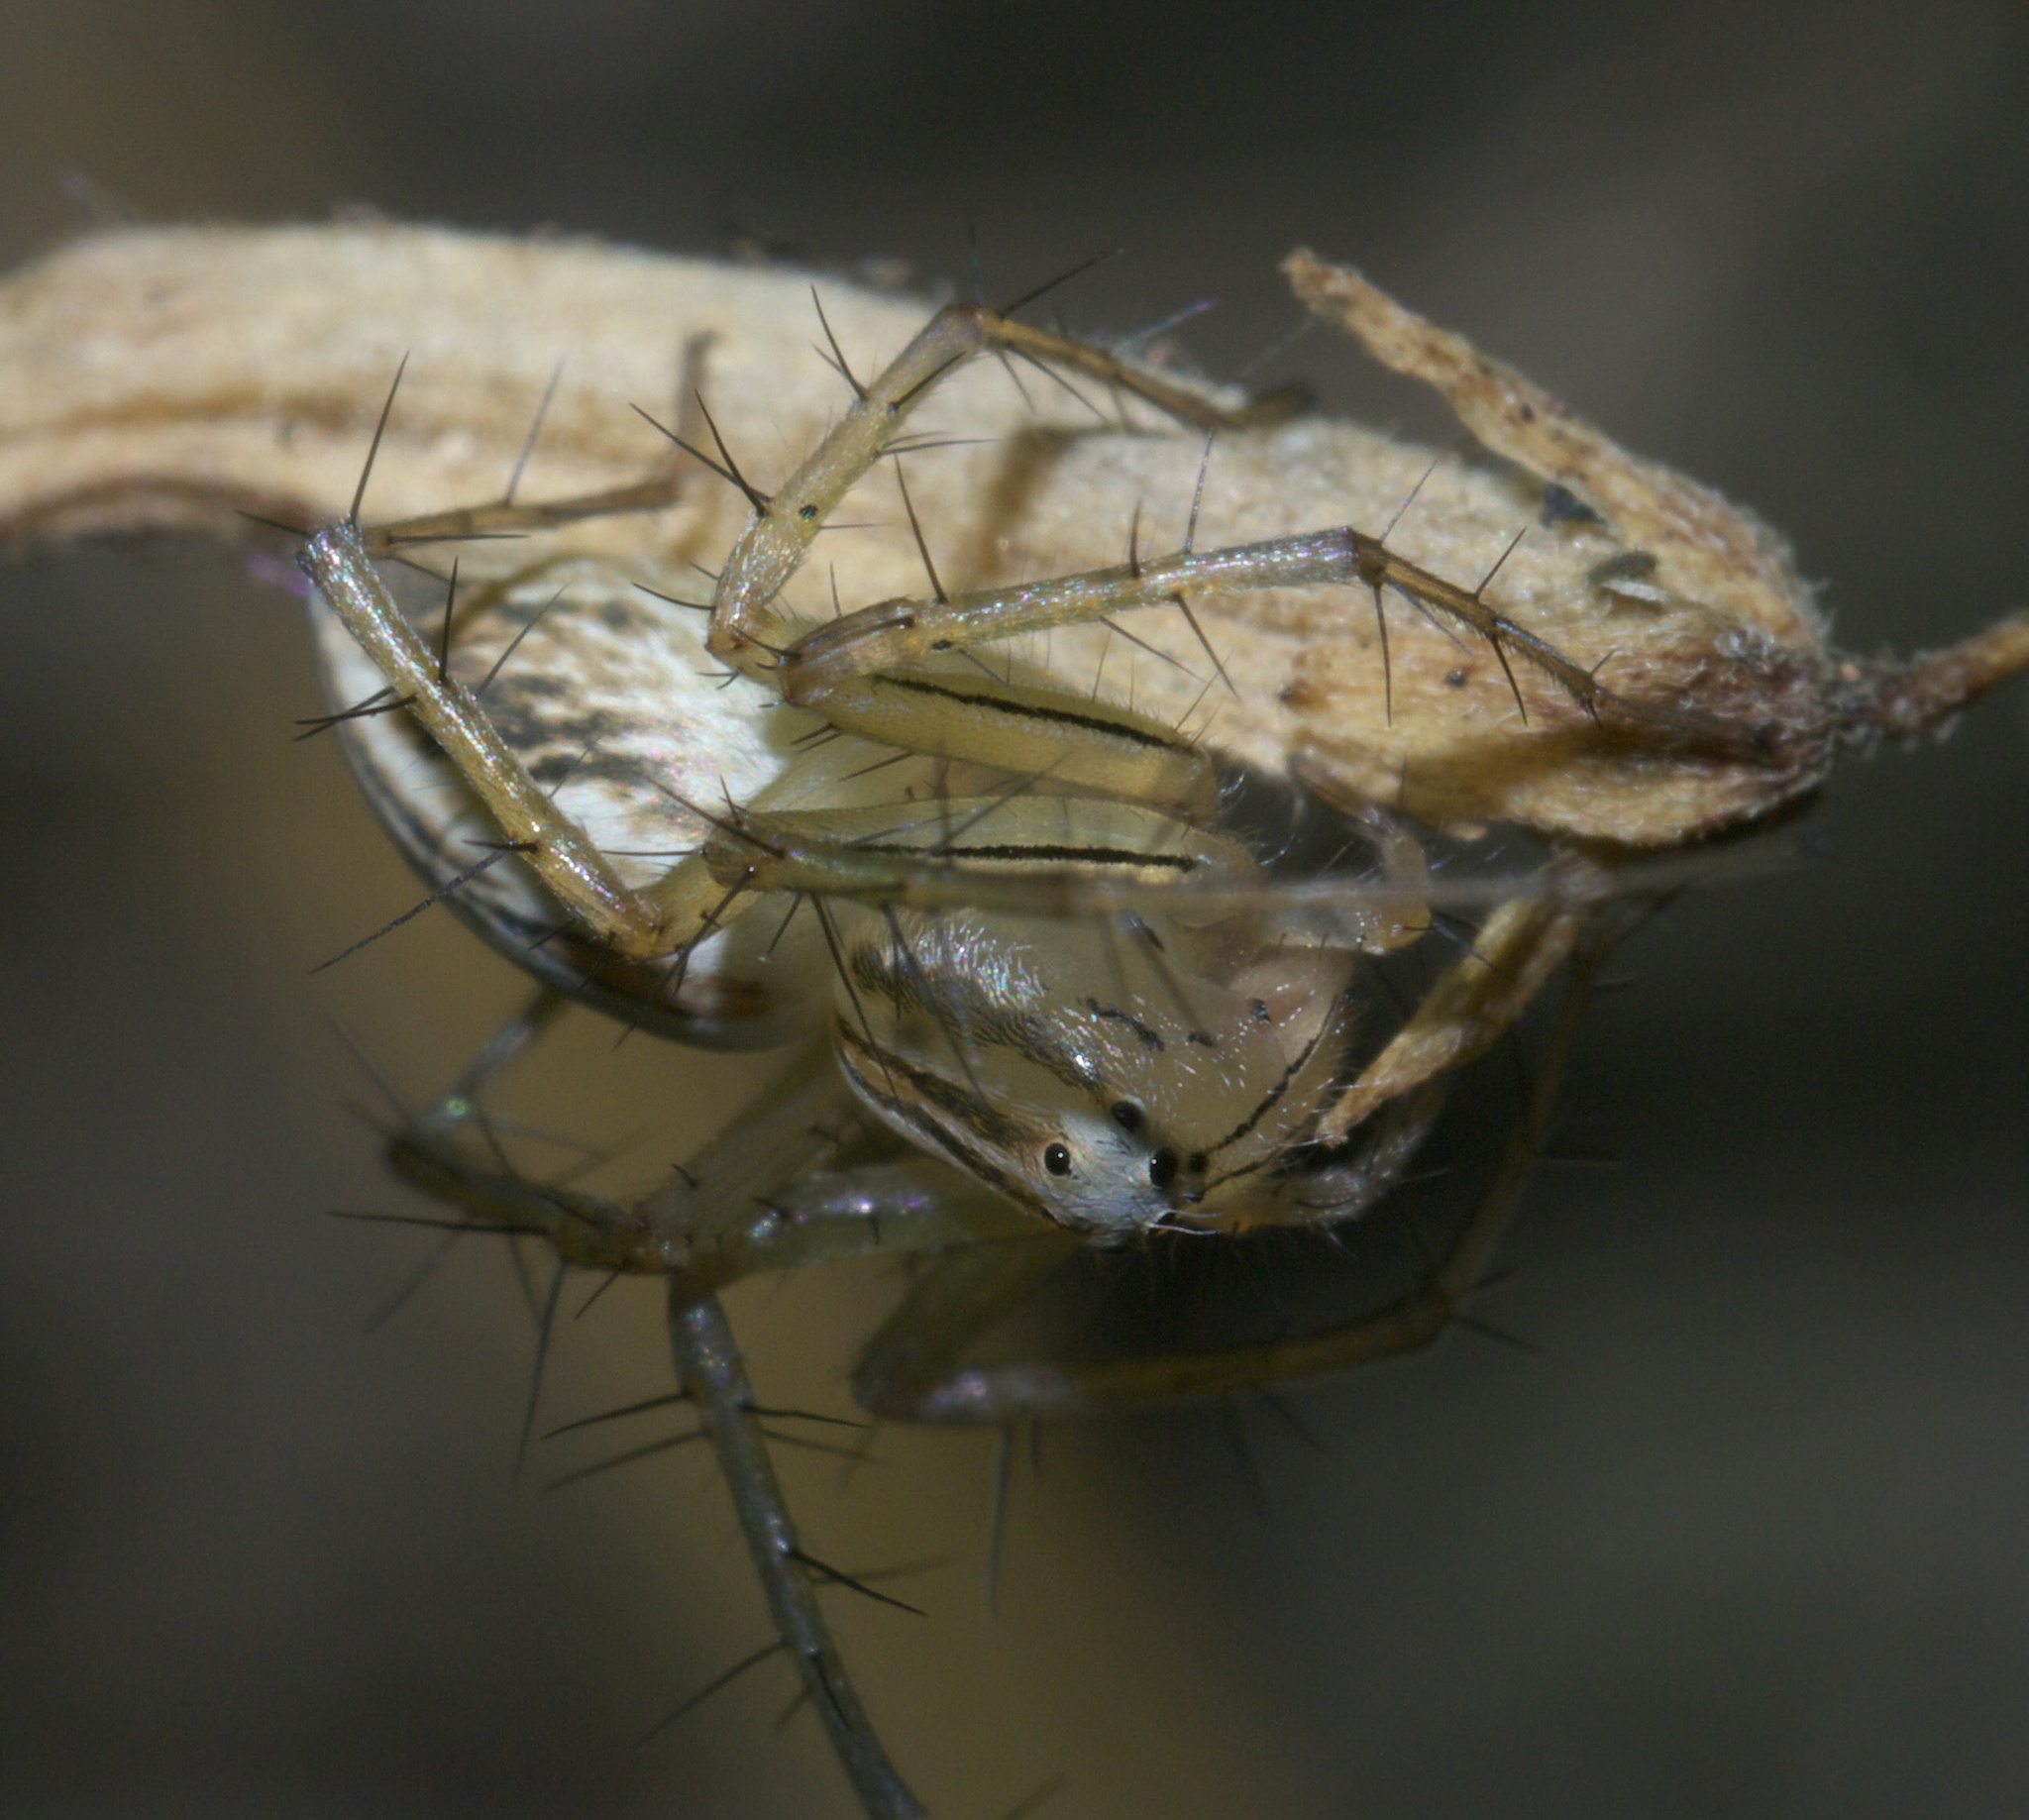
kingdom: Animalia
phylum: Arthropoda
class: Arachnida
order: Araneae
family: Oxyopidae
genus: Oxyopes
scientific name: Oxyopes salticus
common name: Lynx spiders
